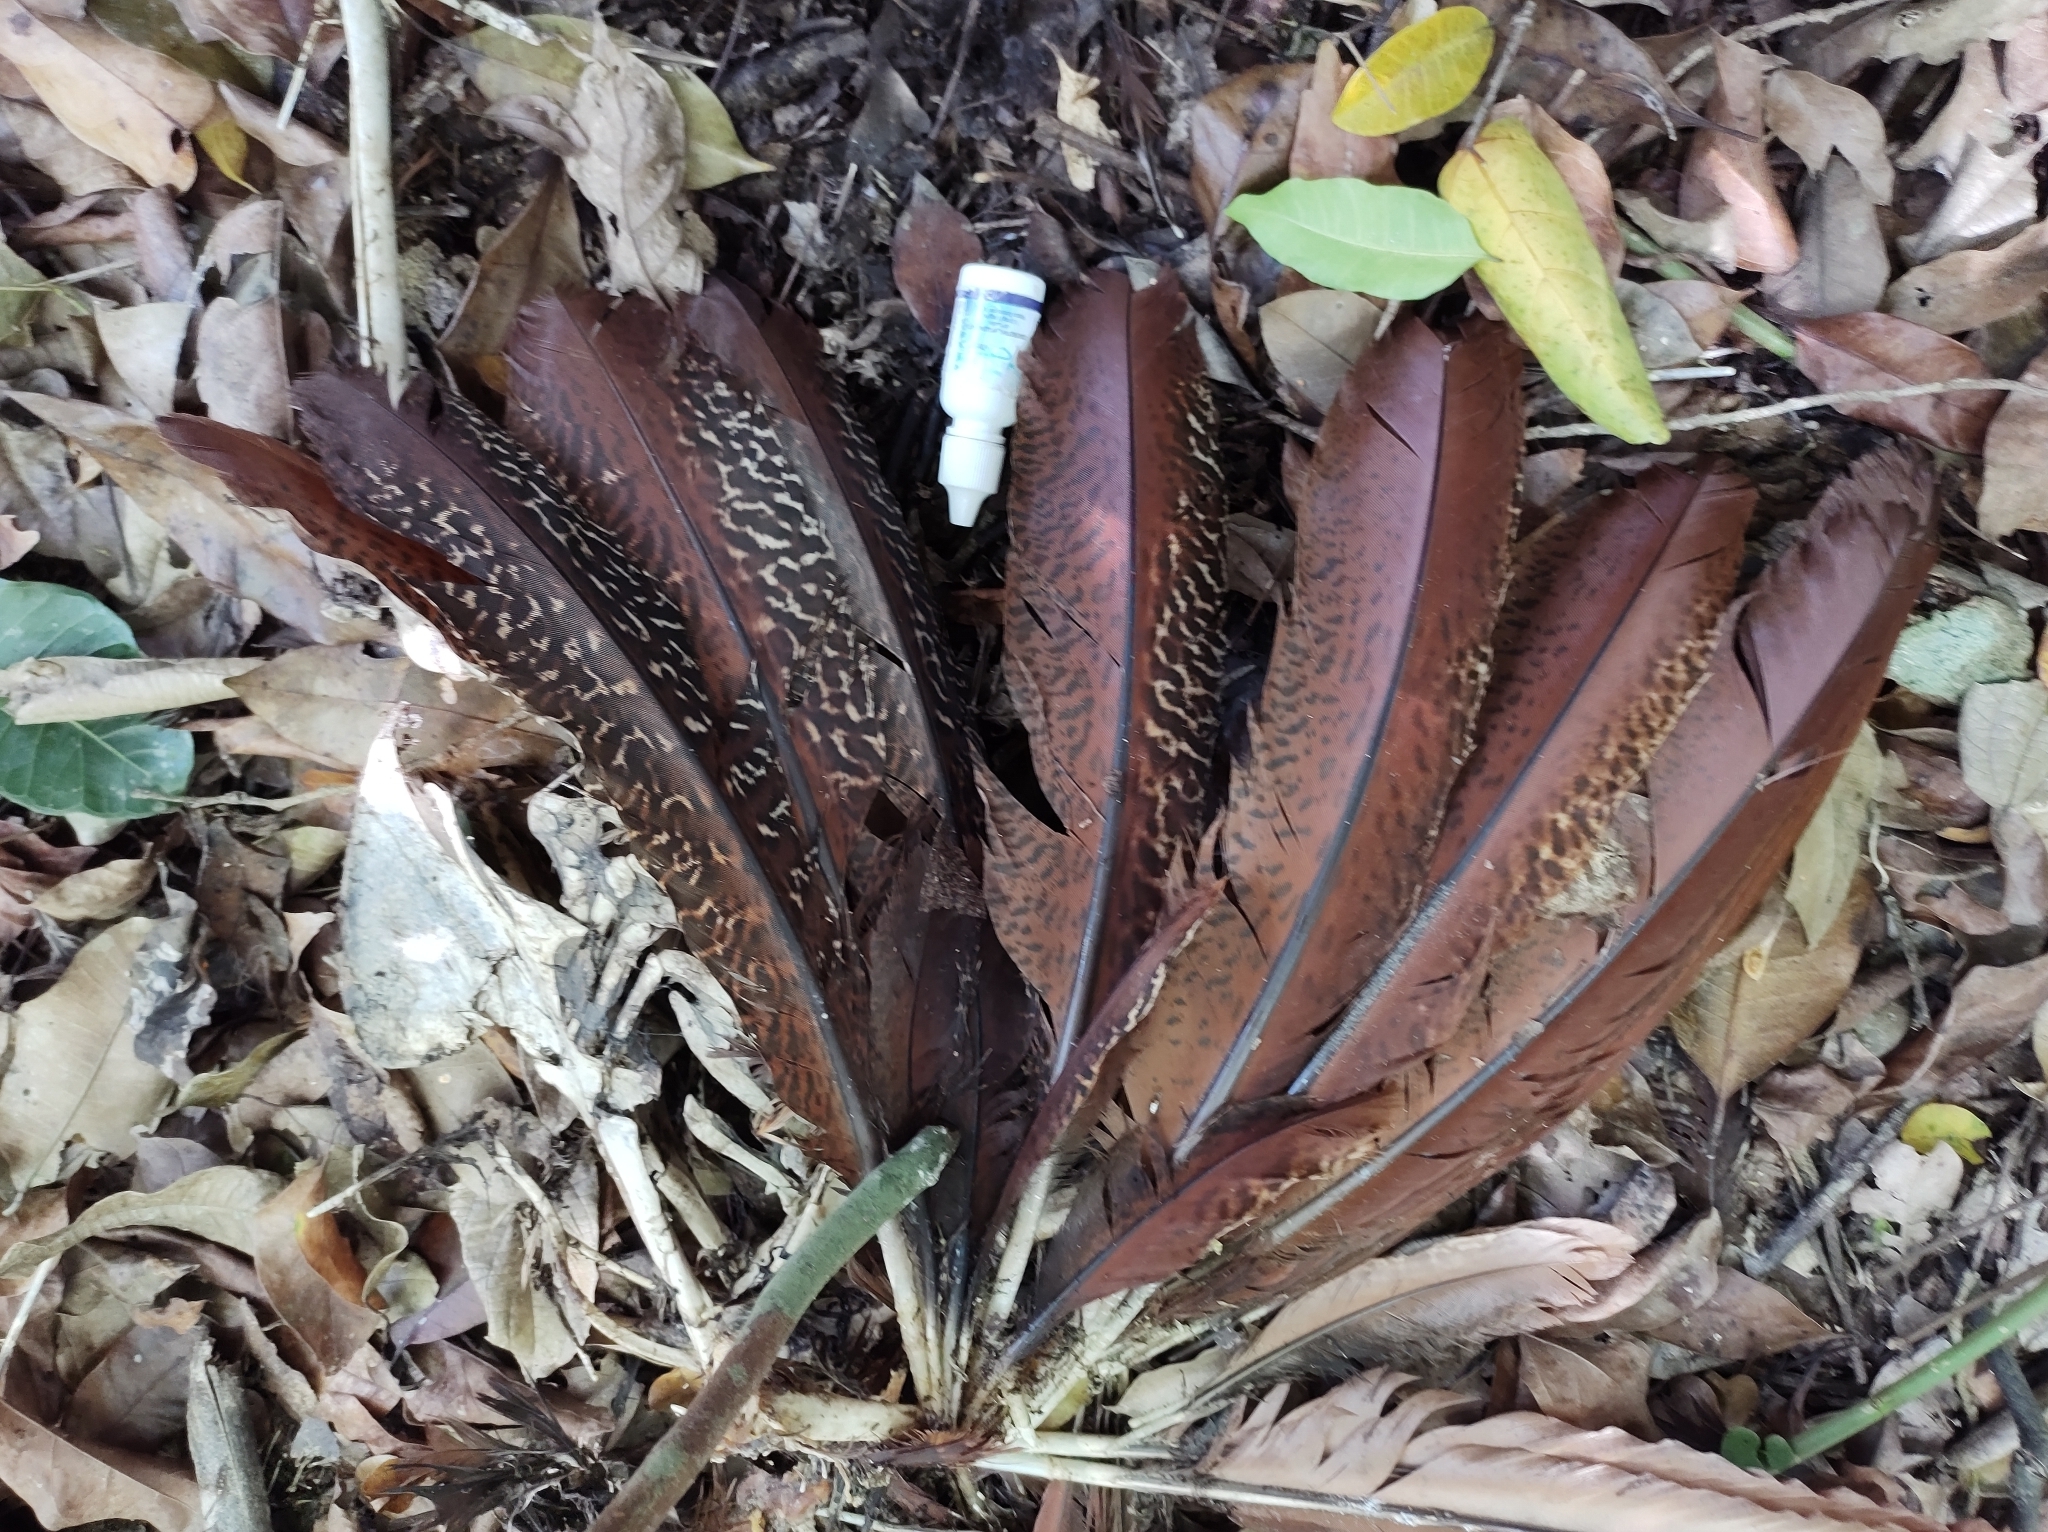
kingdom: Animalia
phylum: Chordata
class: Aves
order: Galliformes
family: Cracidae
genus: Crax
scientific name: Crax rubra
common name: Great curassow
